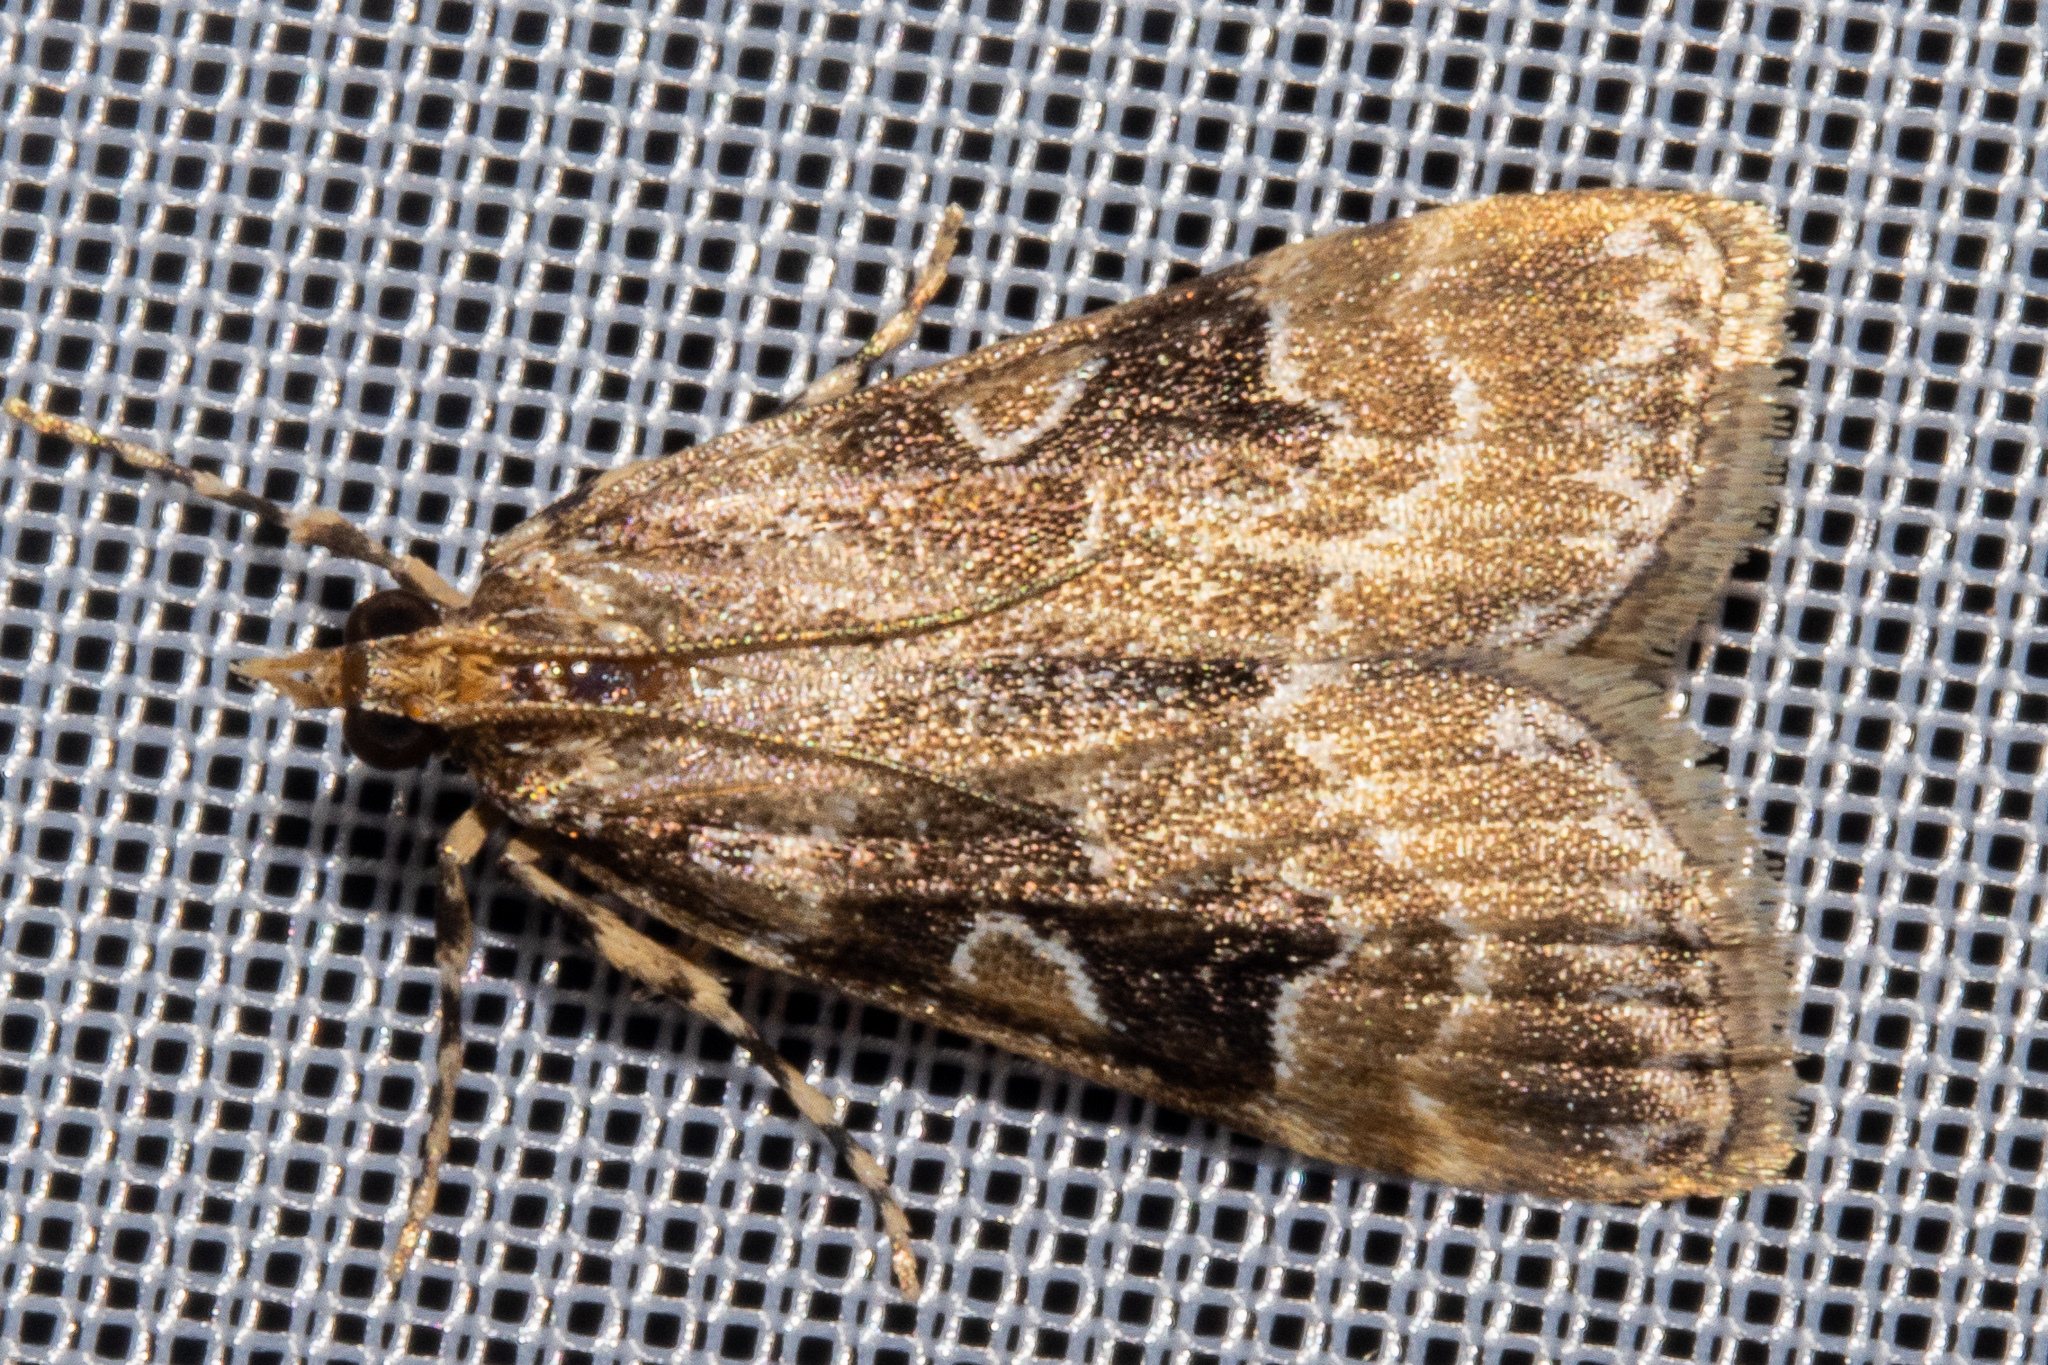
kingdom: Animalia
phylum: Arthropoda
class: Insecta
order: Lepidoptera
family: Crambidae
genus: Scoparia
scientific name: Scoparia ustimacula
